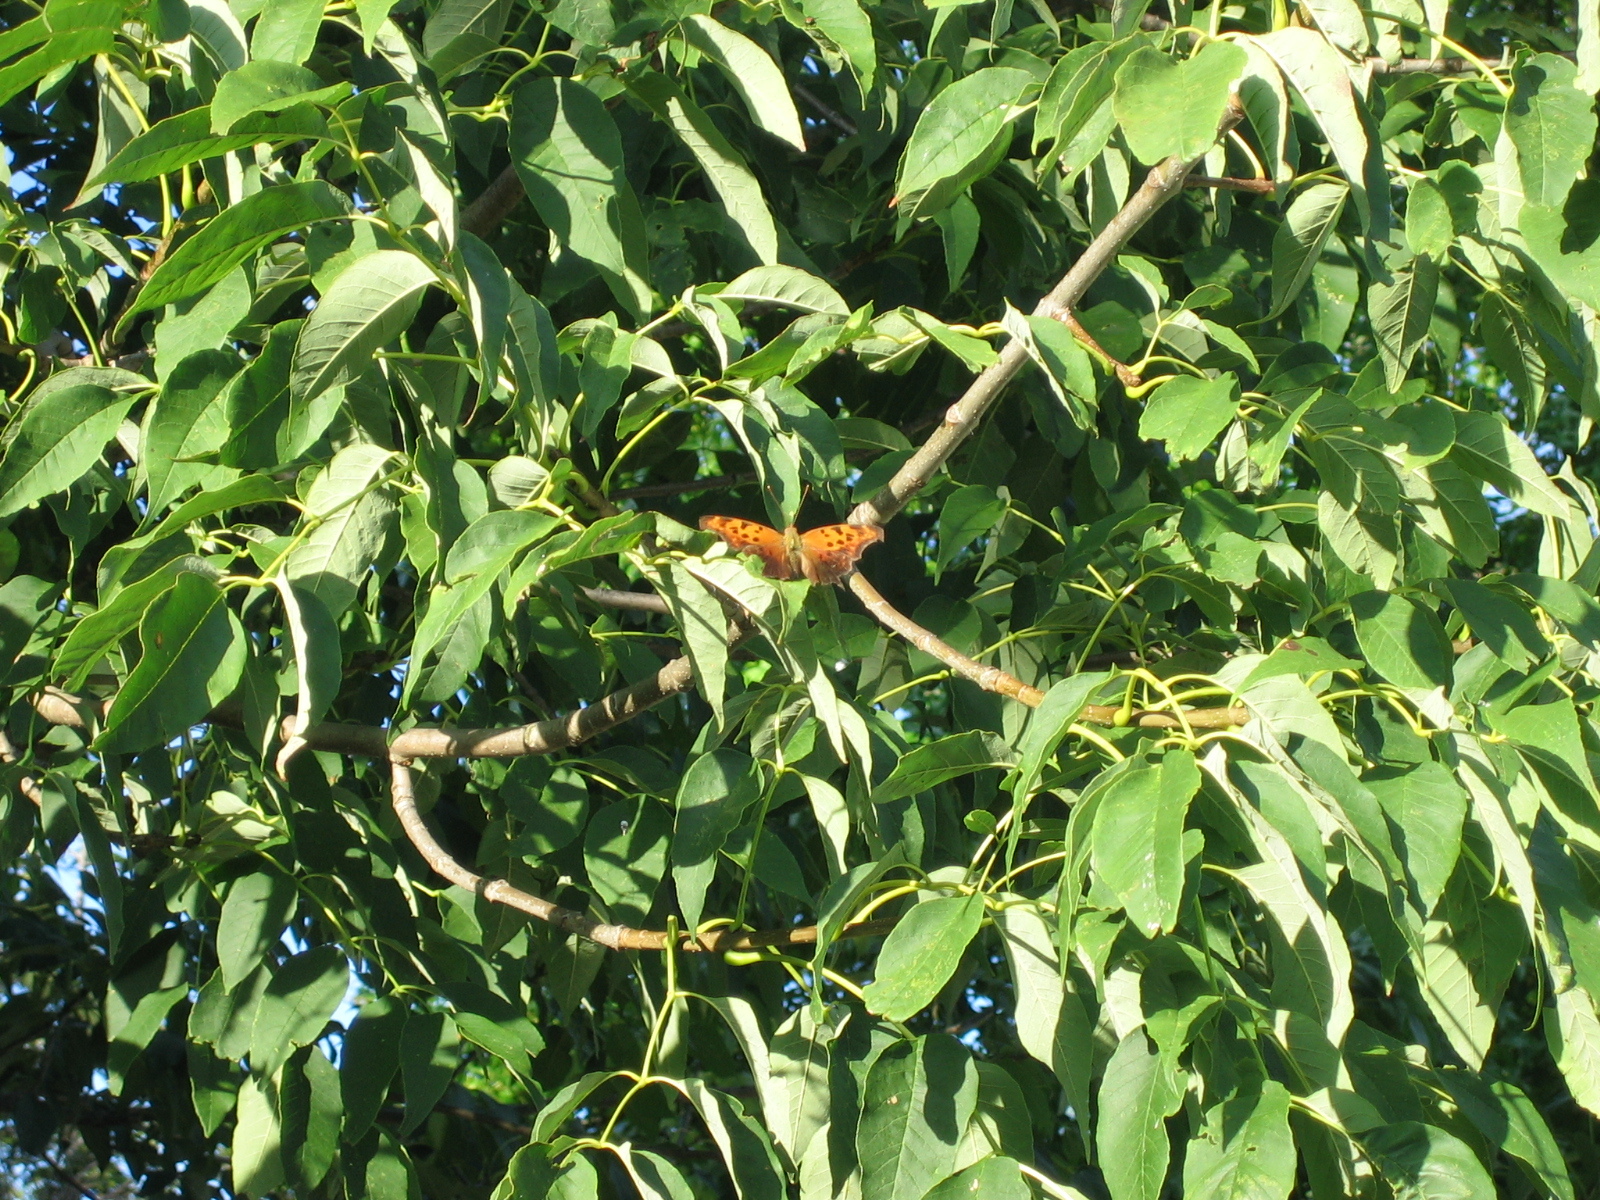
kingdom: Animalia
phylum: Arthropoda
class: Insecta
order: Lepidoptera
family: Nymphalidae
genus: Polygonia
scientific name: Polygonia interrogationis
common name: Question mark
